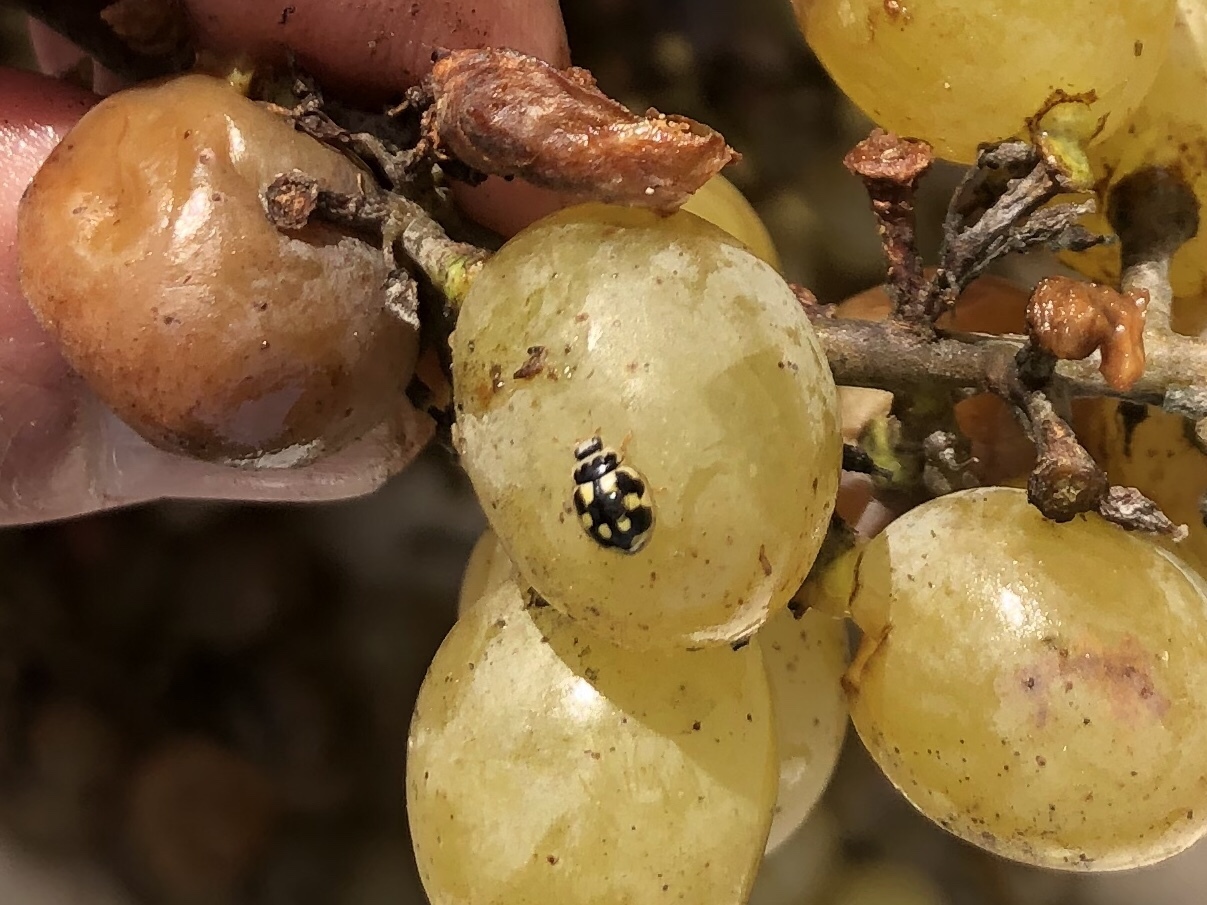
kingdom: Animalia
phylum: Arthropoda
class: Insecta
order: Coleoptera
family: Coccinellidae
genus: Propylaea
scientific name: Propylaea quatuordecimpunctata
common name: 14-spotted ladybird beetle
